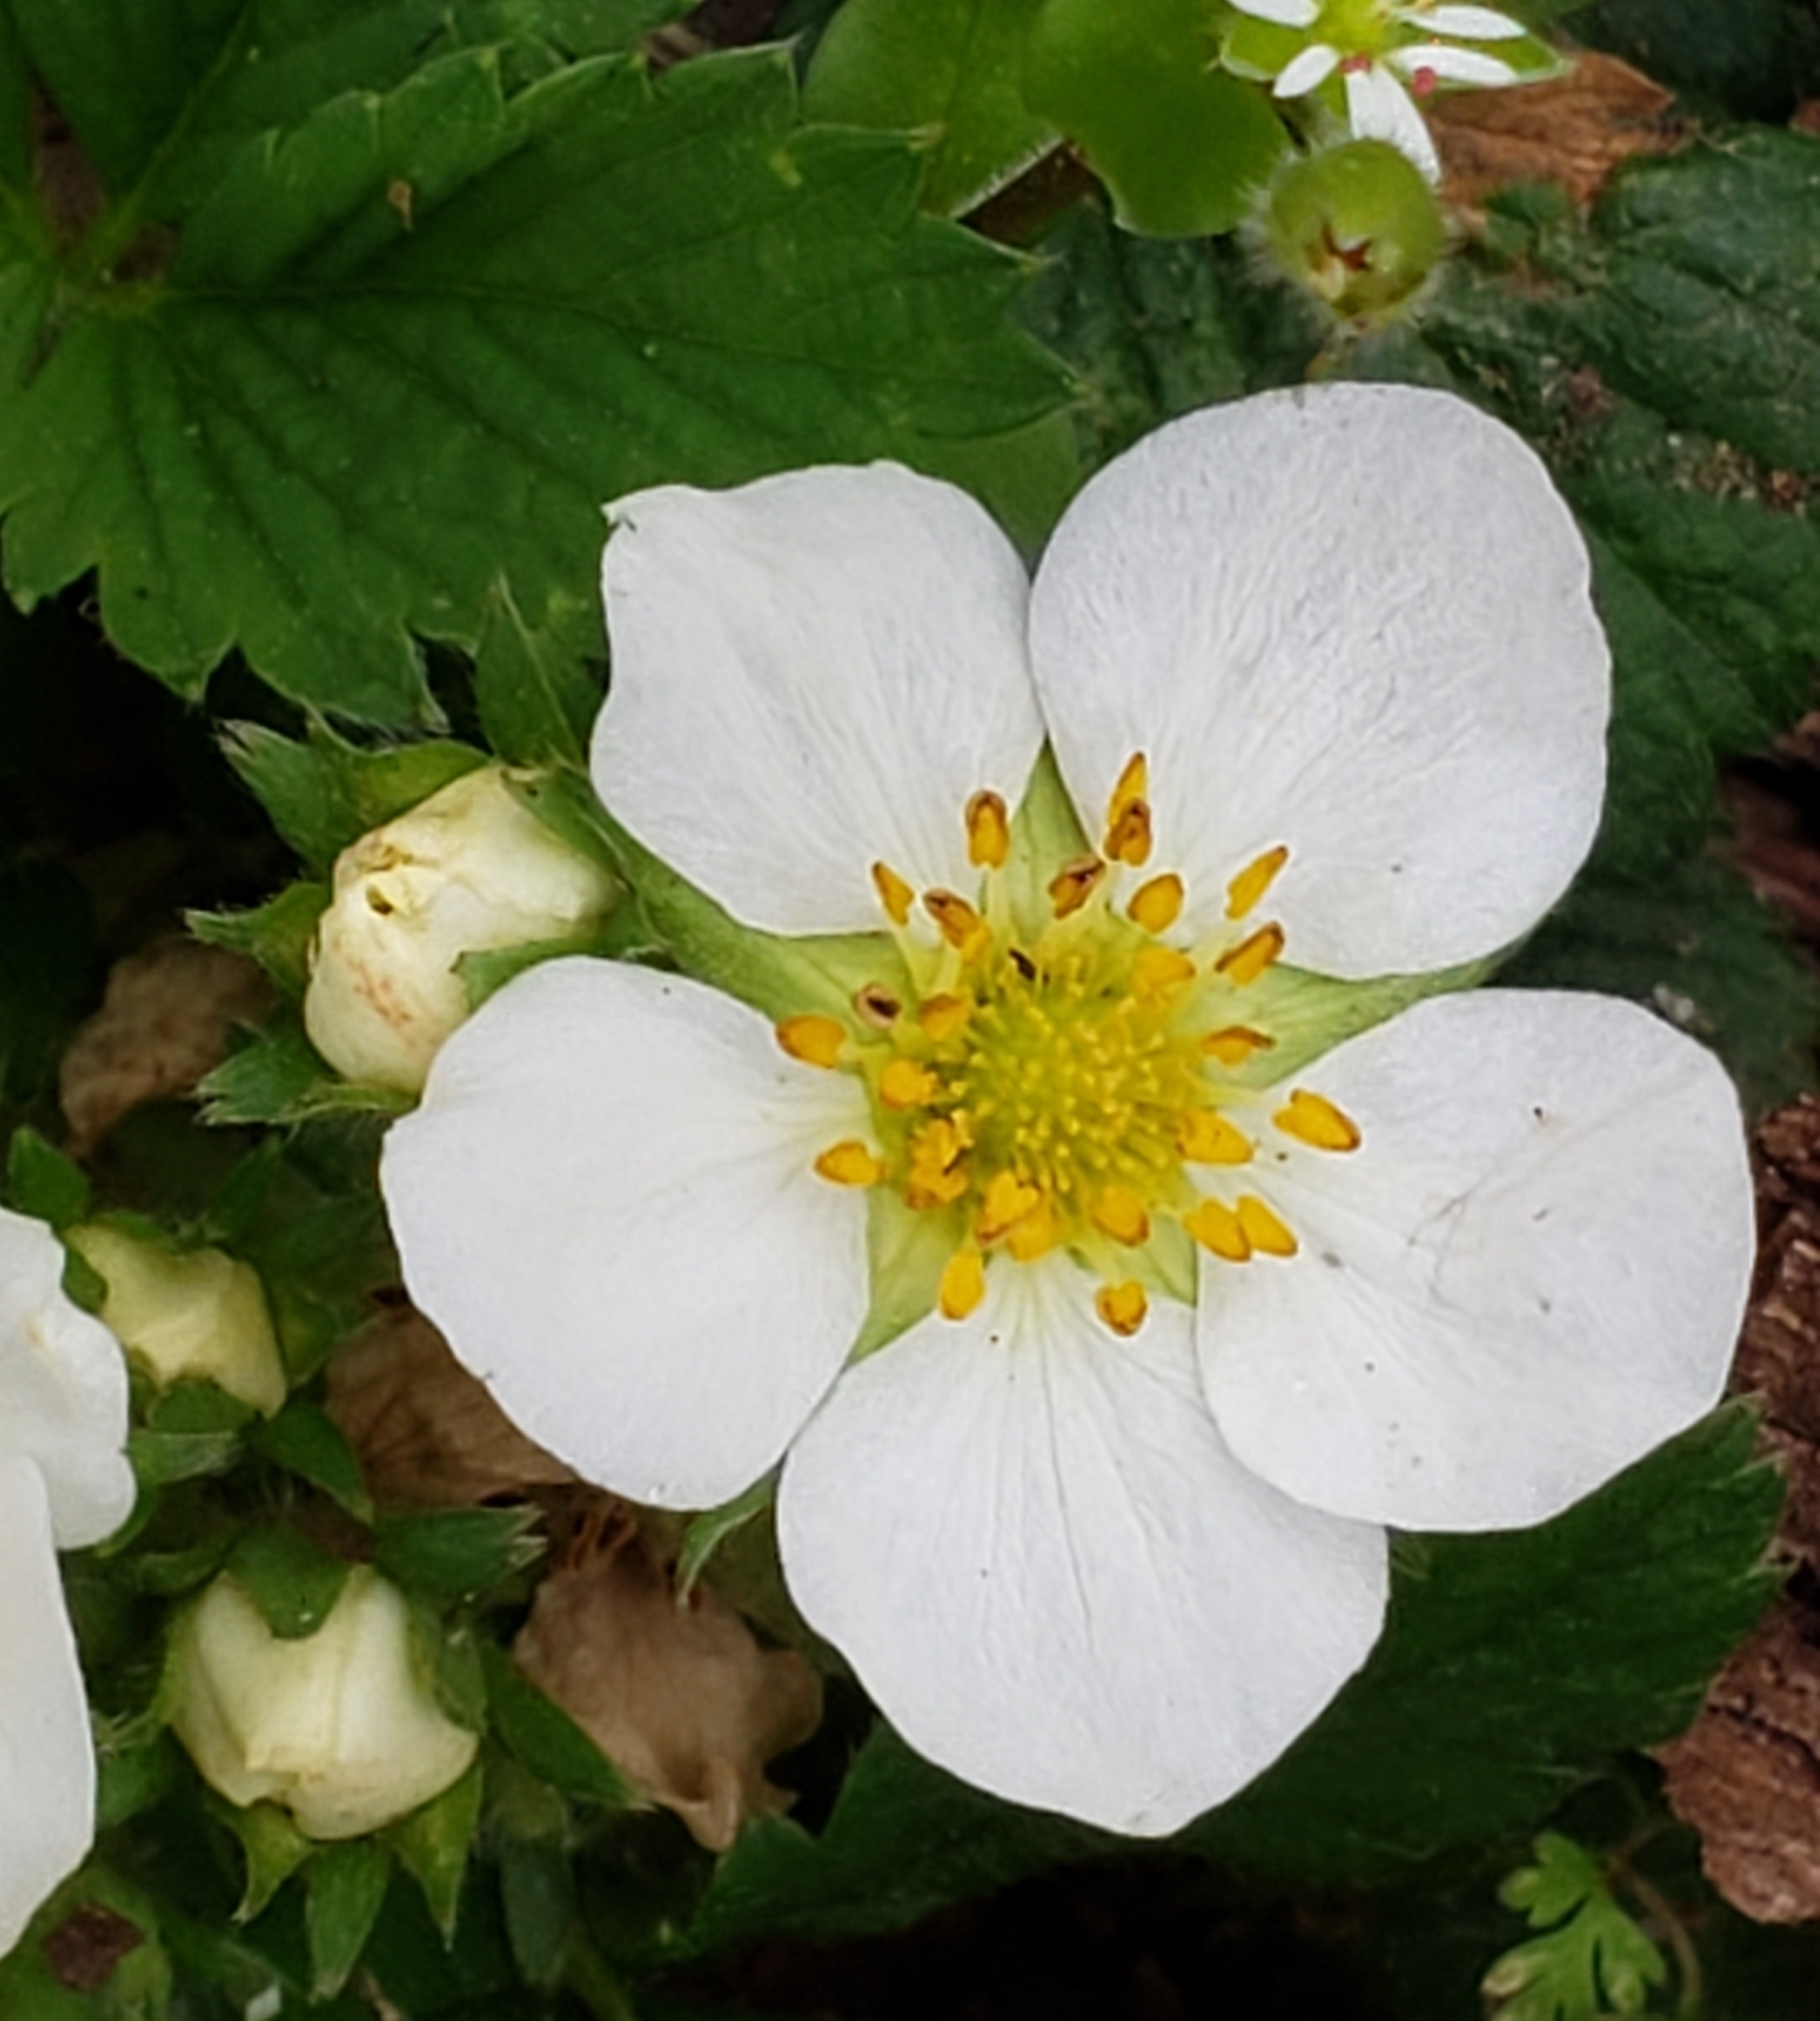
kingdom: Plantae
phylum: Tracheophyta
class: Magnoliopsida
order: Rosales
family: Rosaceae
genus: Fragaria
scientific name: Fragaria virginiana
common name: Thickleaved wild strawberry
